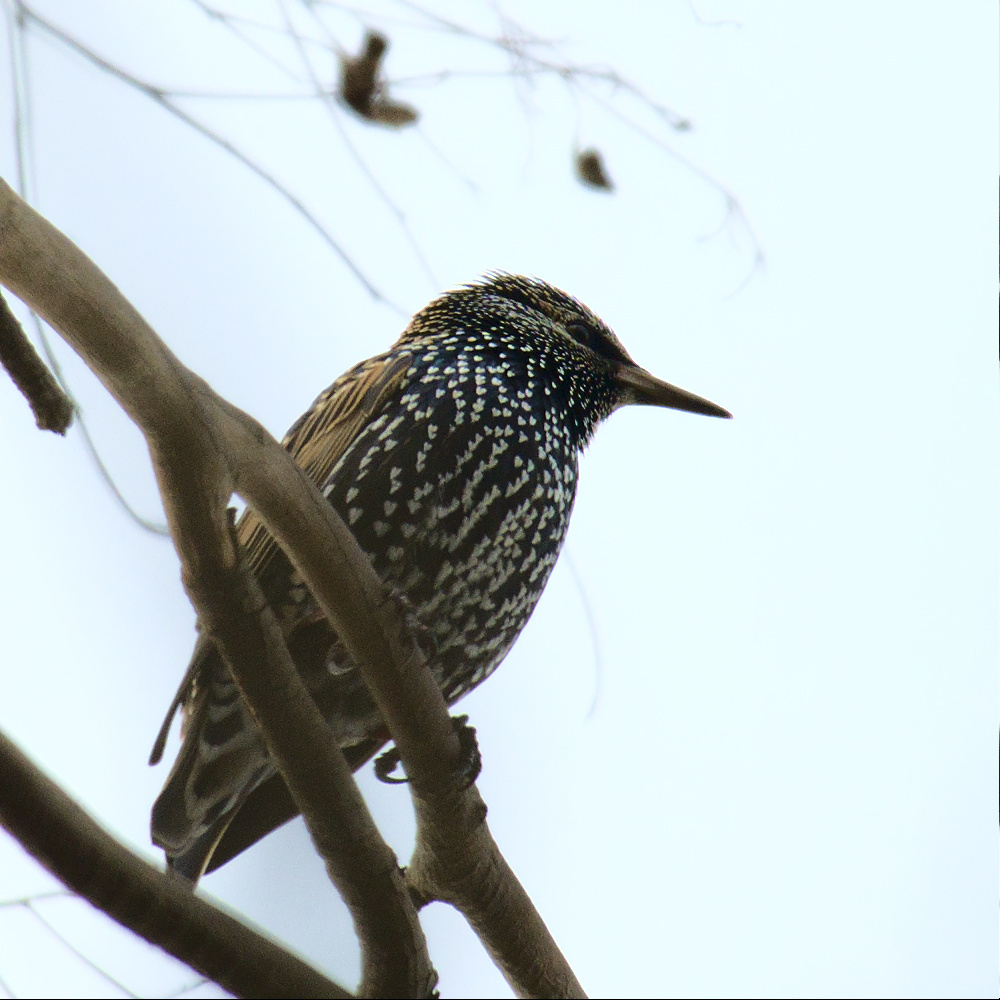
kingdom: Animalia
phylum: Chordata
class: Aves
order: Passeriformes
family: Sturnidae
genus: Sturnus
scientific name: Sturnus vulgaris
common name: Common starling
